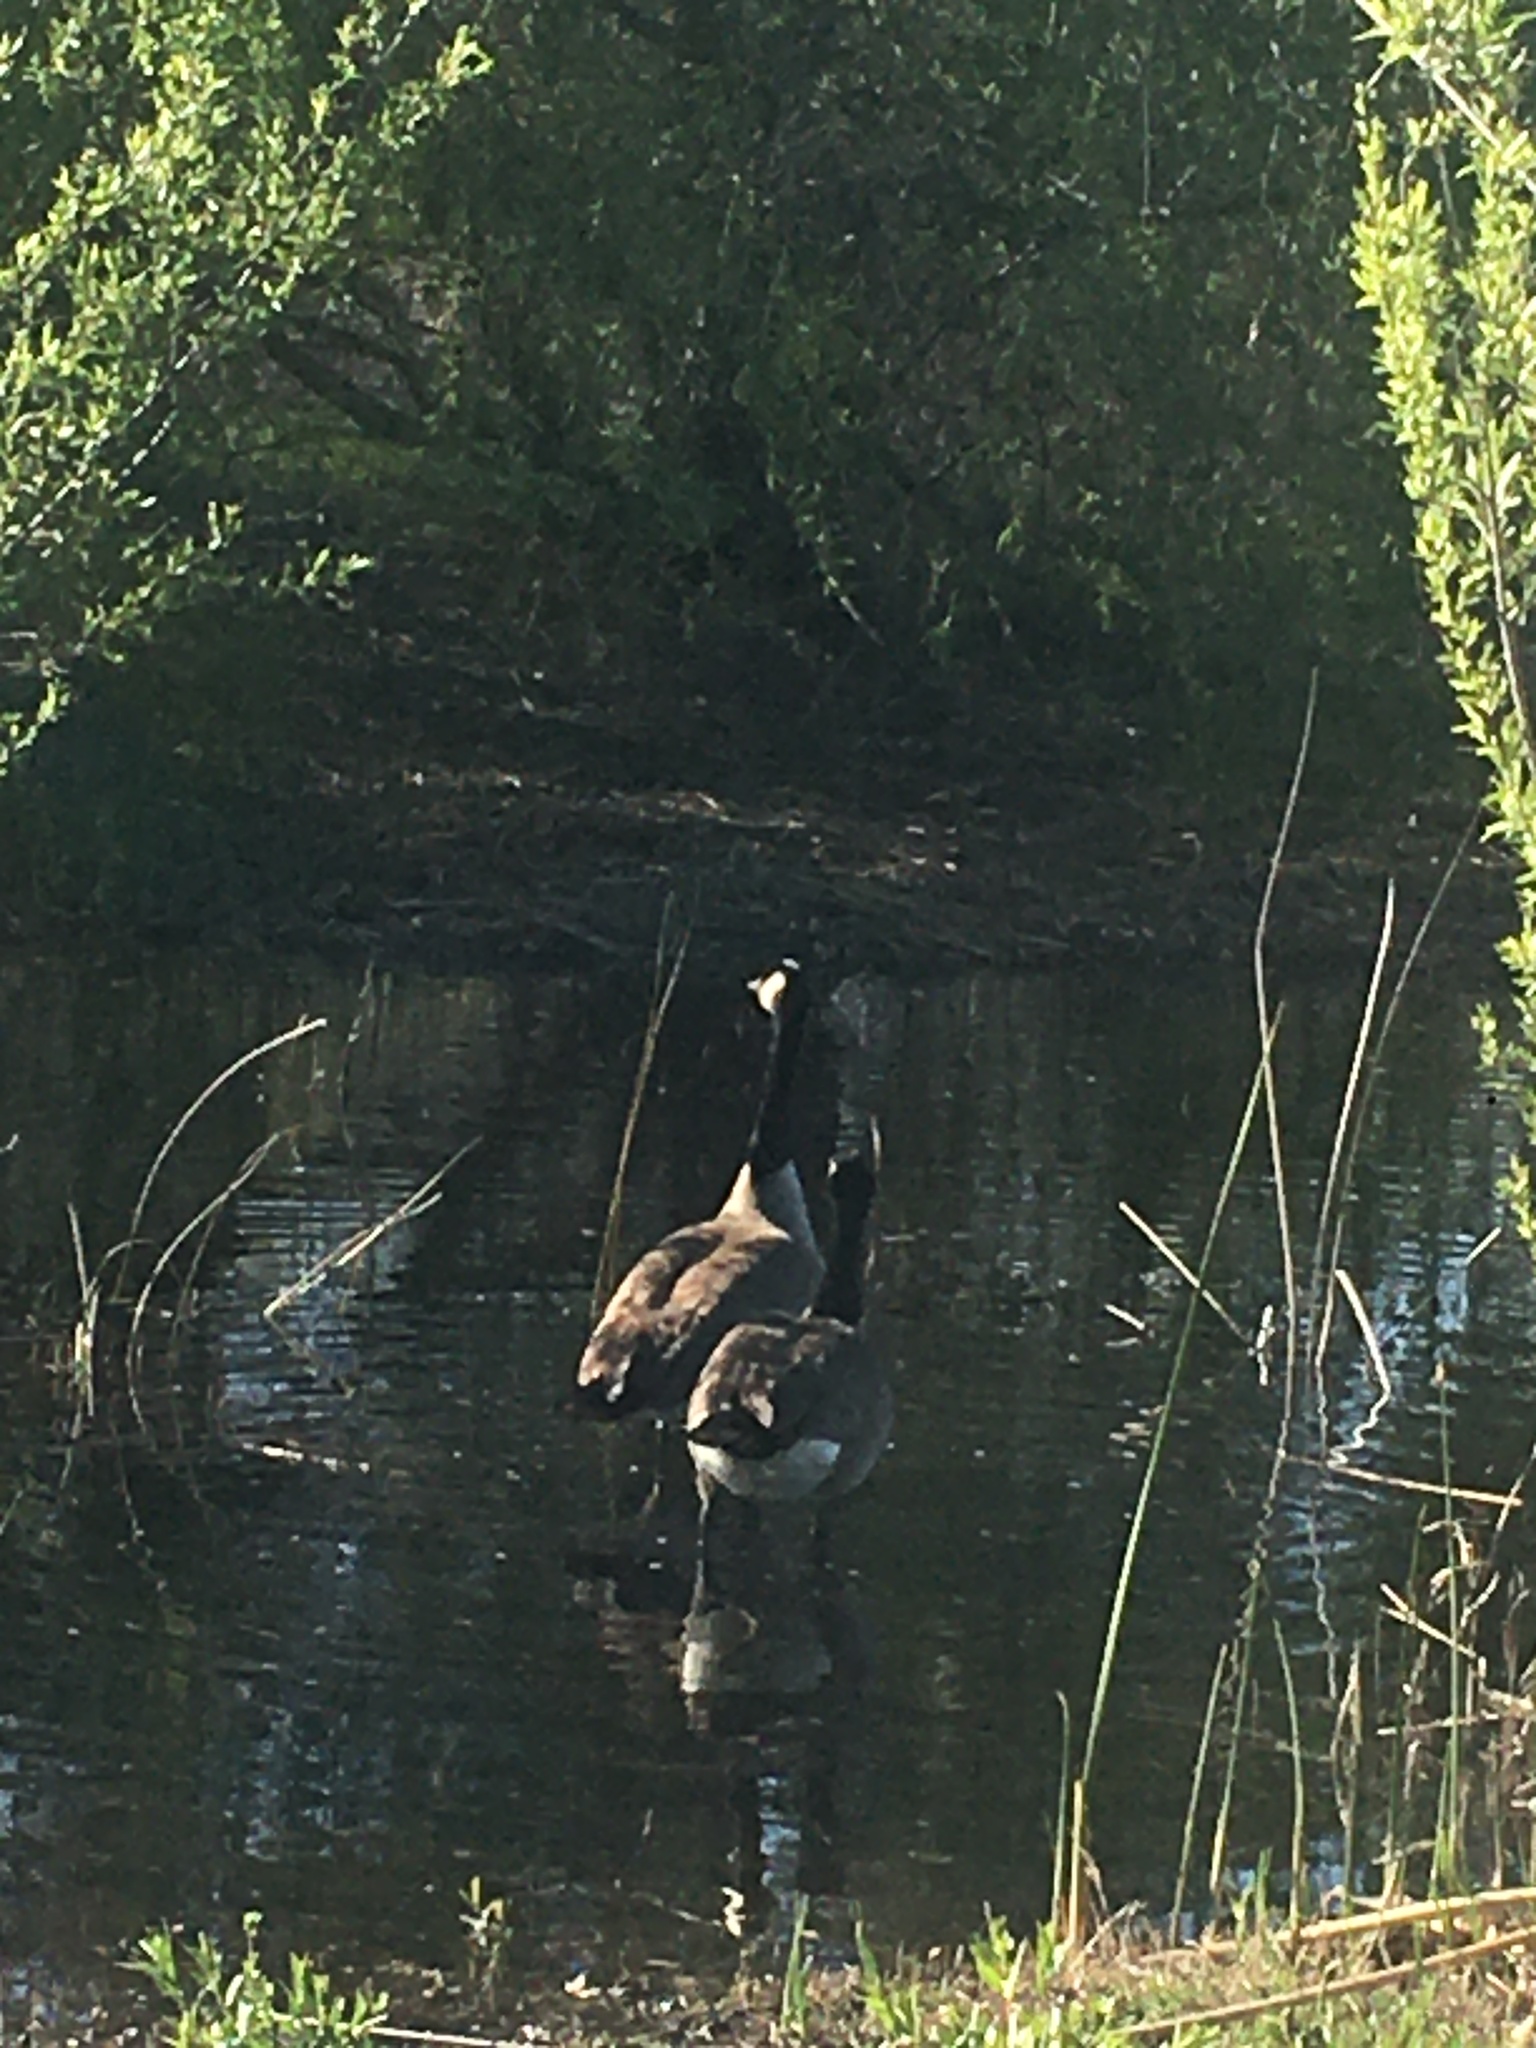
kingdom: Animalia
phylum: Chordata
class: Aves
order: Anseriformes
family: Anatidae
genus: Branta
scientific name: Branta canadensis
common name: Canada goose
